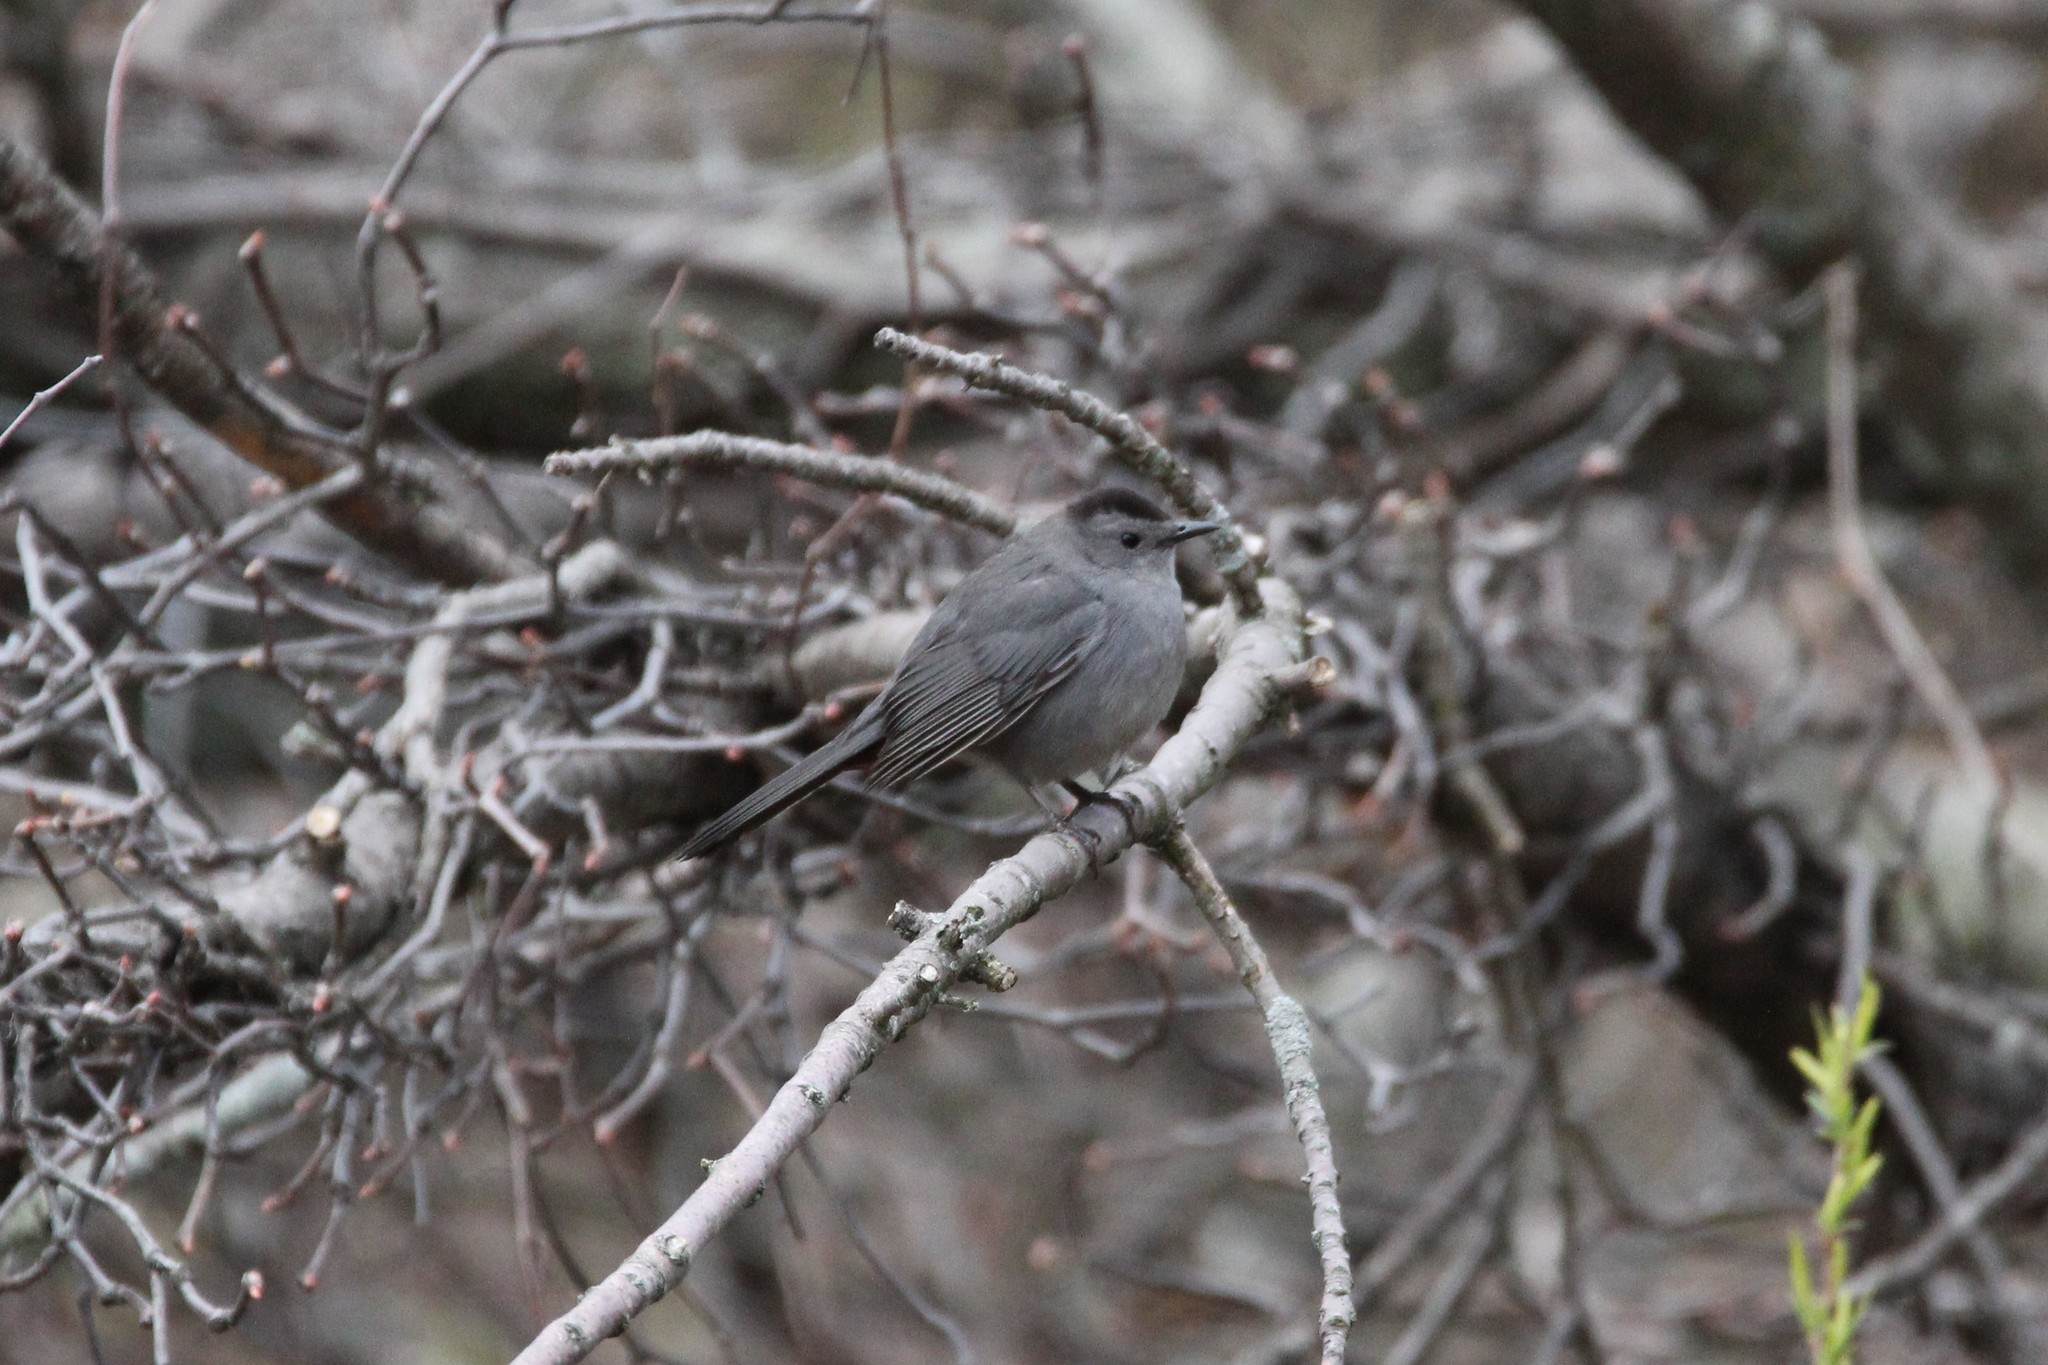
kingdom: Animalia
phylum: Chordata
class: Aves
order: Passeriformes
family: Mimidae
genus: Dumetella
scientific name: Dumetella carolinensis
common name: Gray catbird
